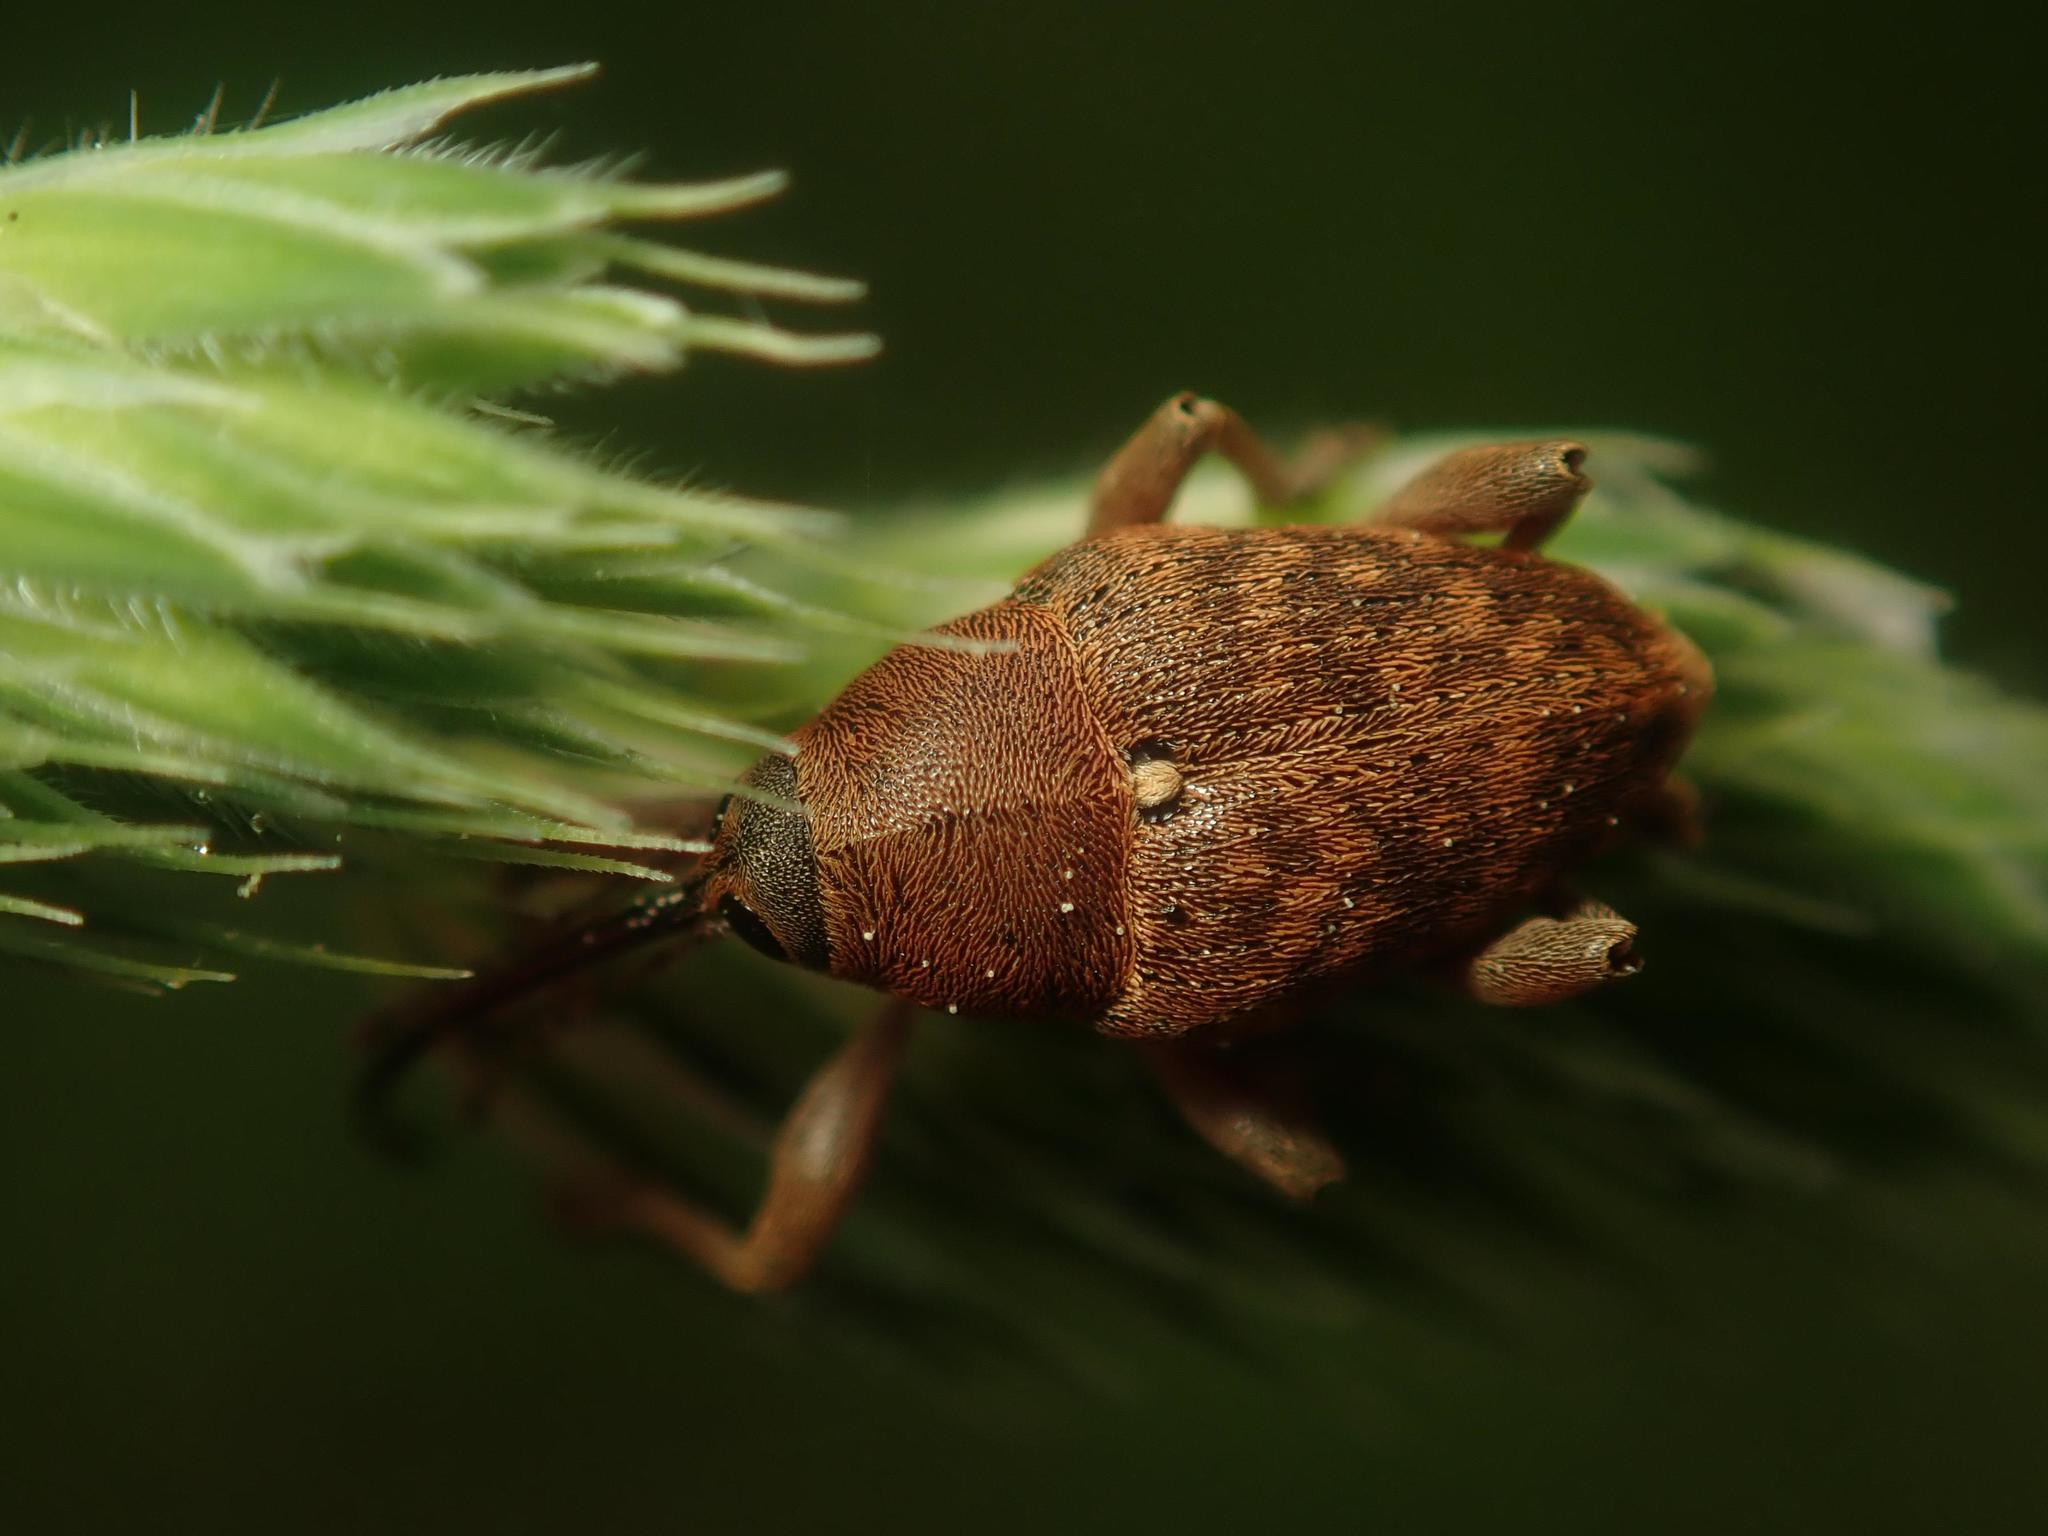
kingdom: Animalia
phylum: Arthropoda
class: Insecta
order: Coleoptera
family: Curculionidae
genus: Curculio
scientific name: Curculio glandium
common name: Acorn weevil
